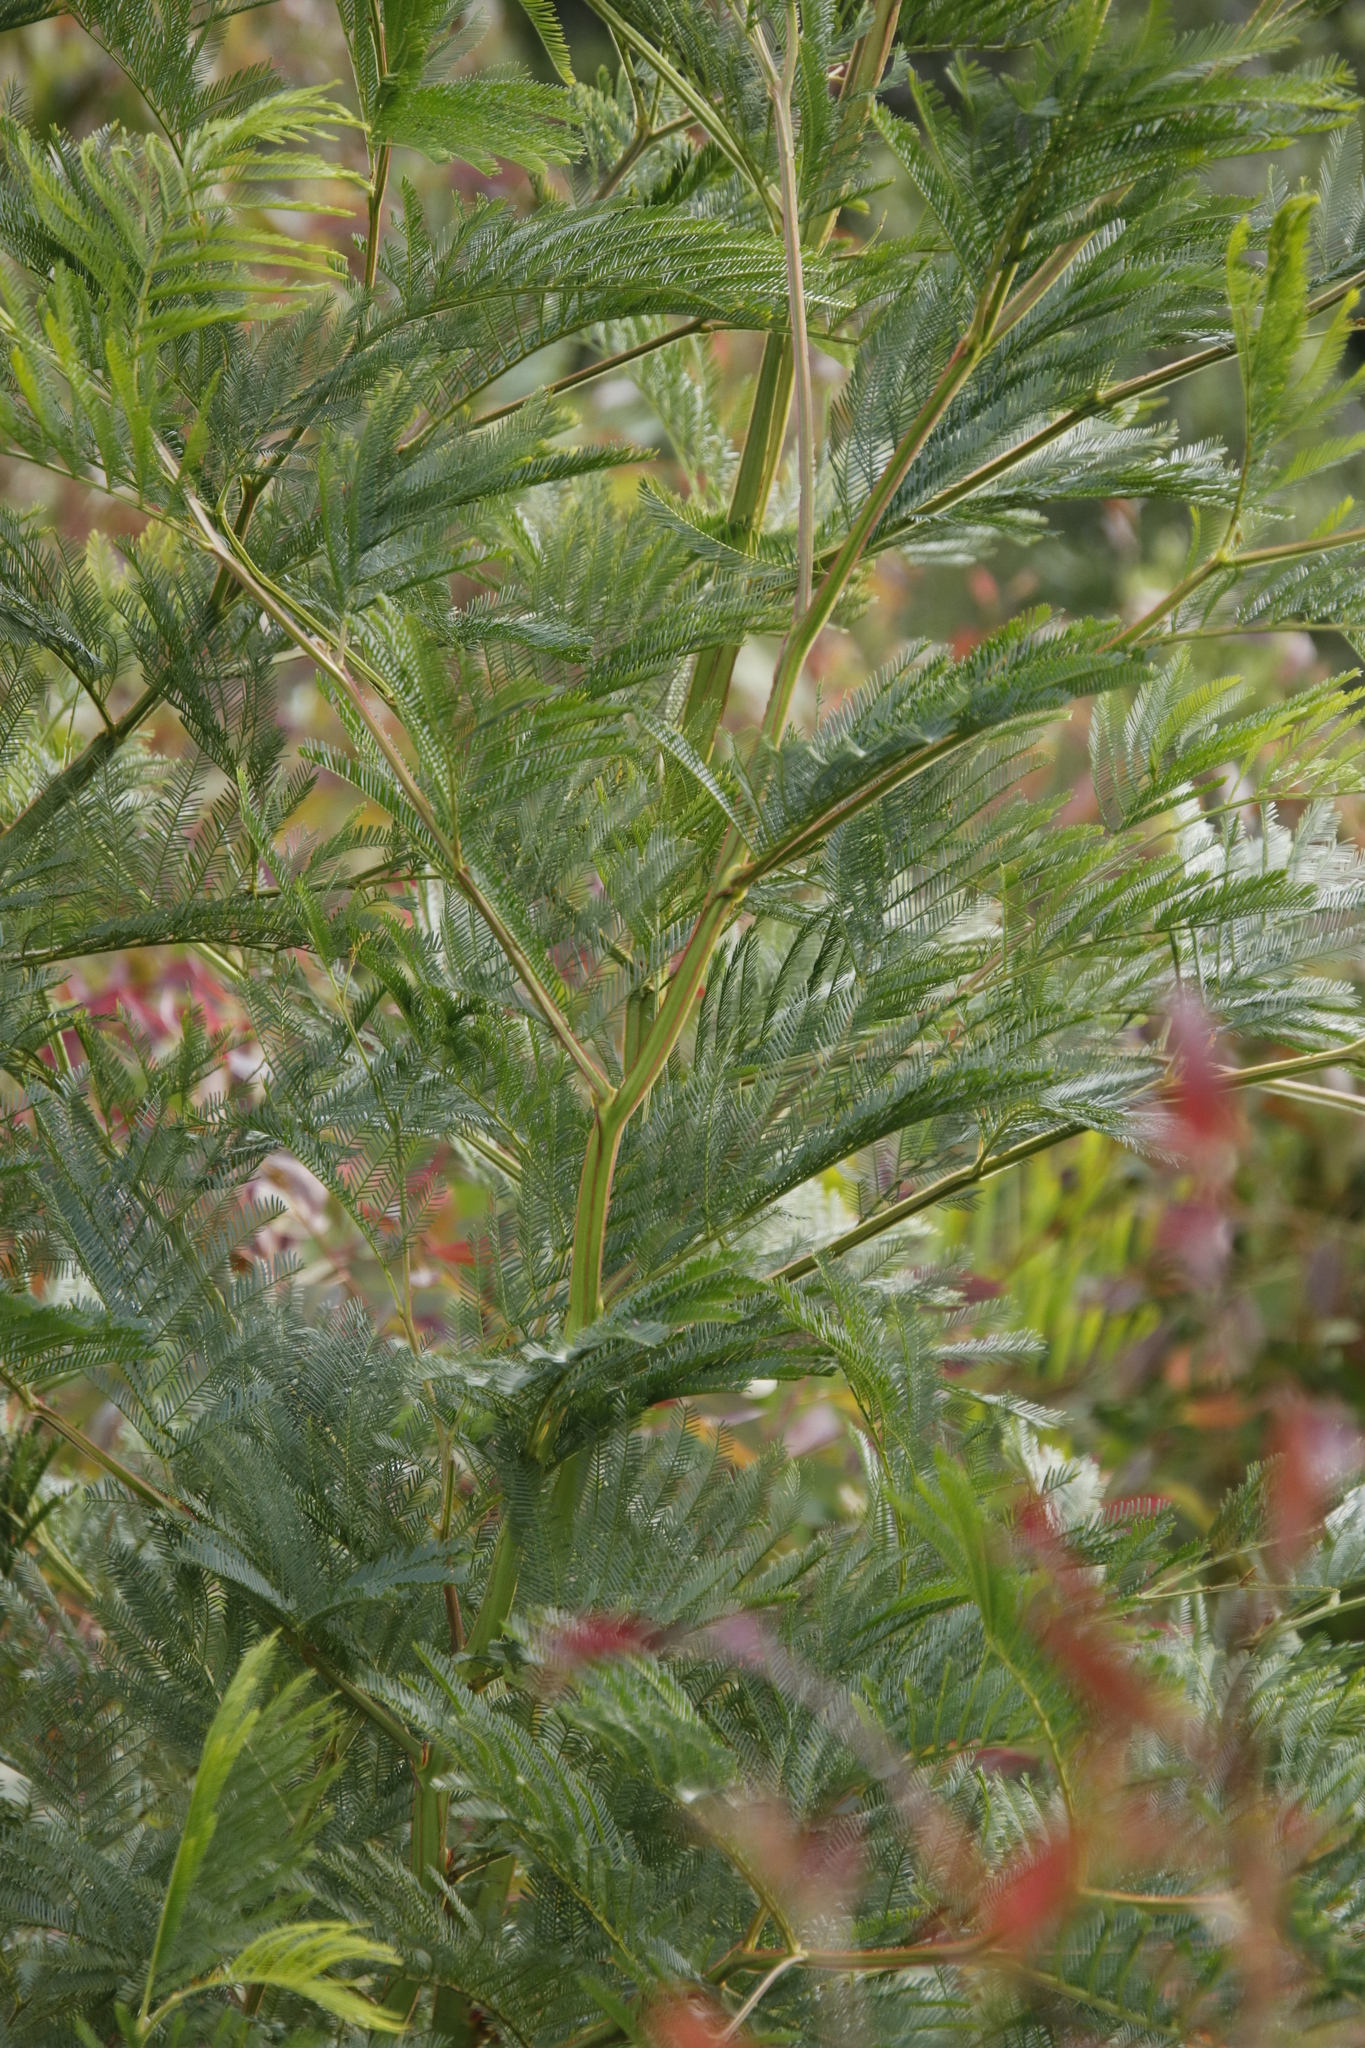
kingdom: Plantae
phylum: Tracheophyta
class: Magnoliopsida
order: Fabales
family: Fabaceae
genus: Acacia
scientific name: Acacia decurrens
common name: Green wattle
